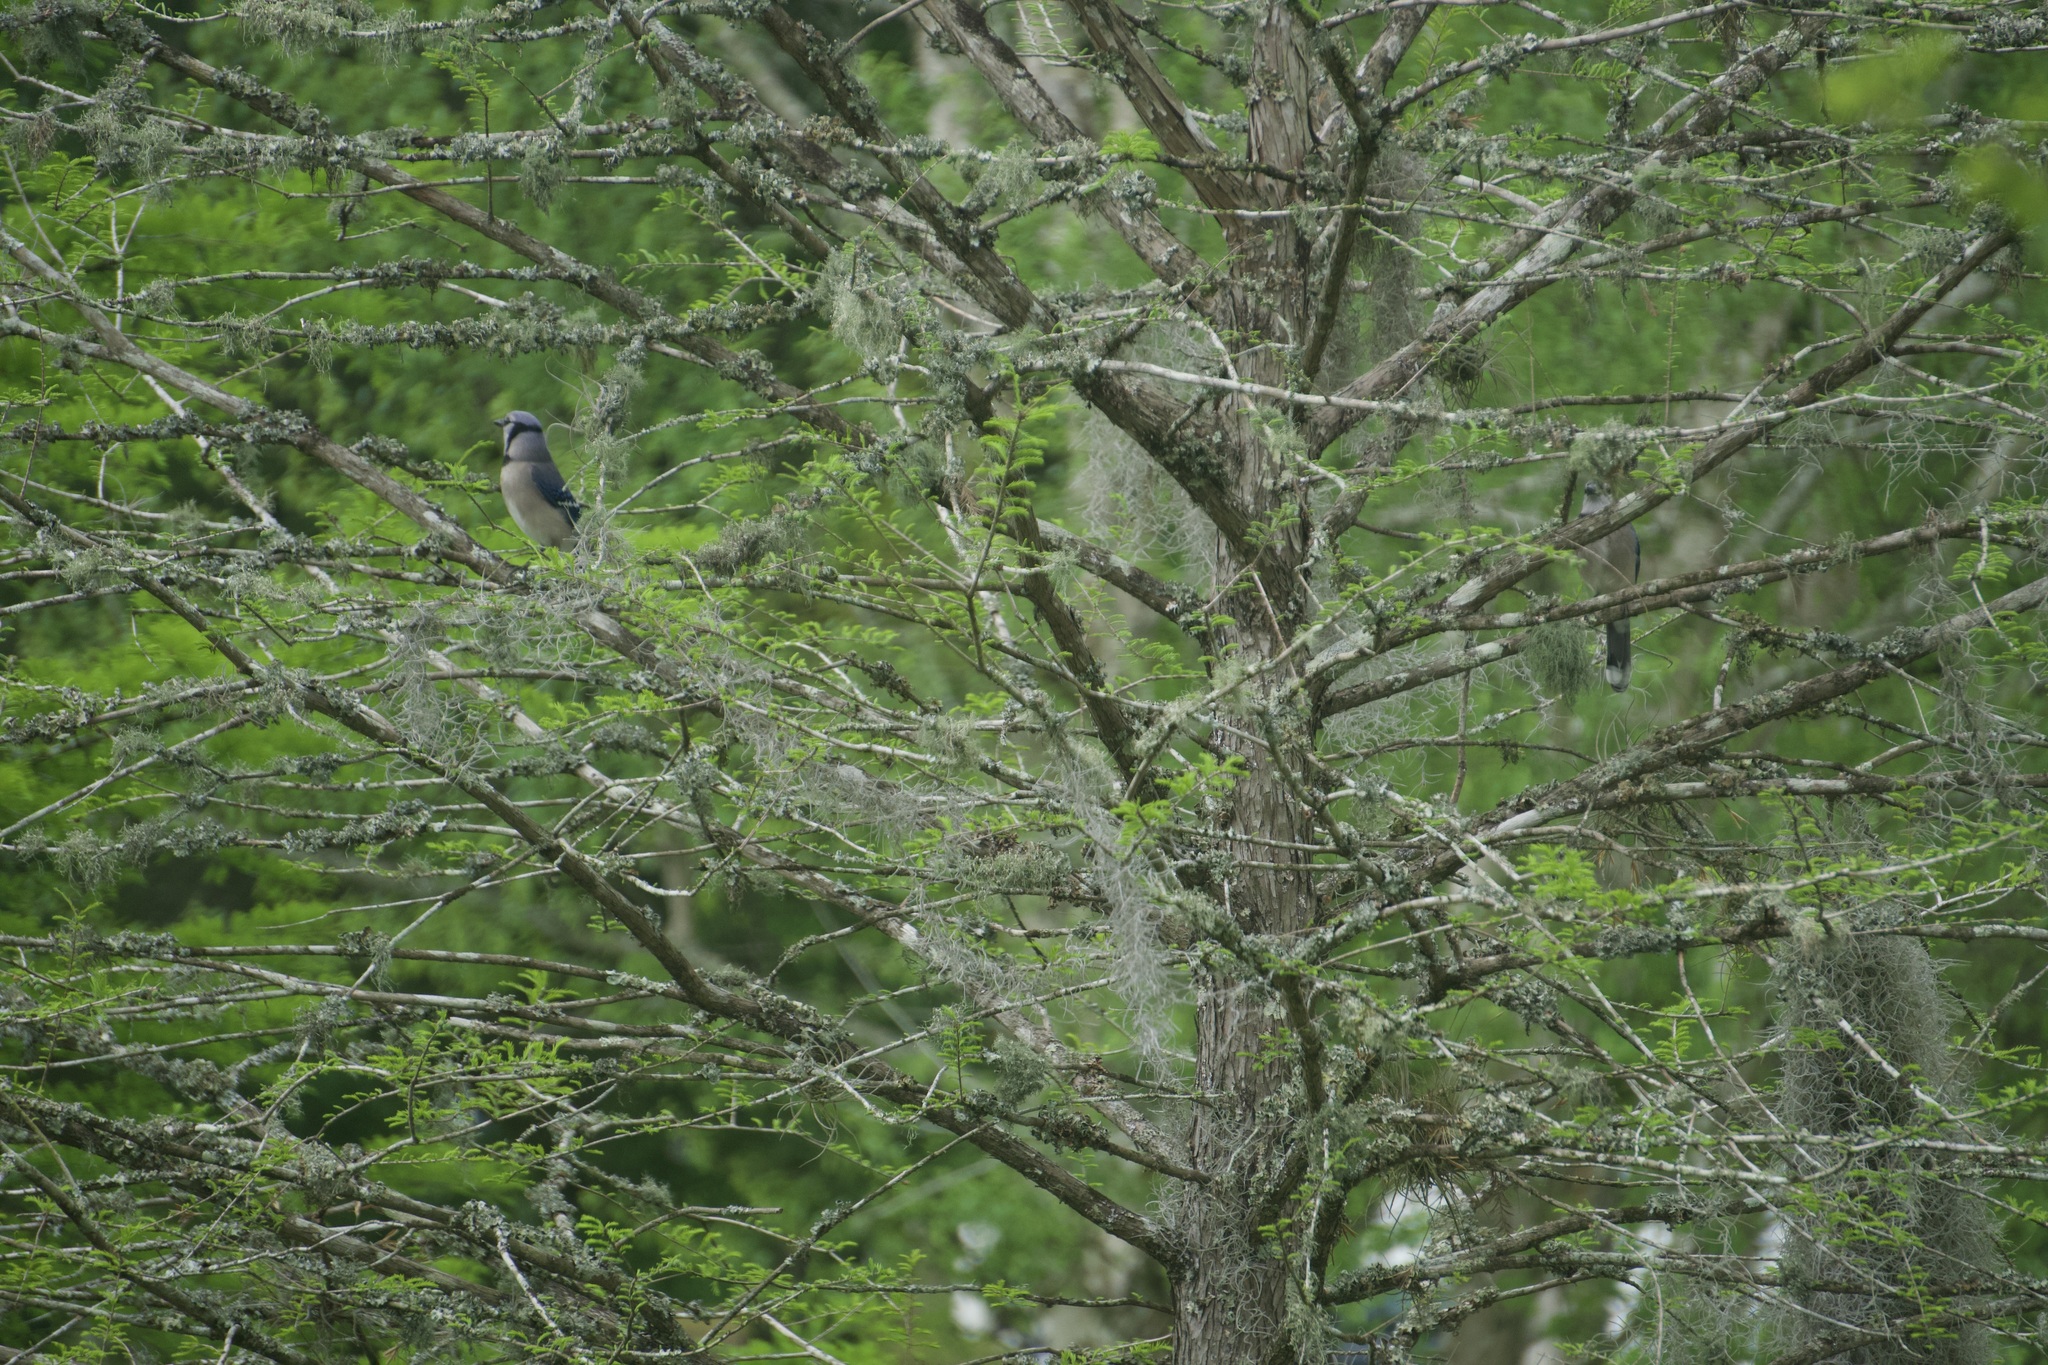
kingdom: Animalia
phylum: Chordata
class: Aves
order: Passeriformes
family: Corvidae
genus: Cyanocitta
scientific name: Cyanocitta cristata
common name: Blue jay
